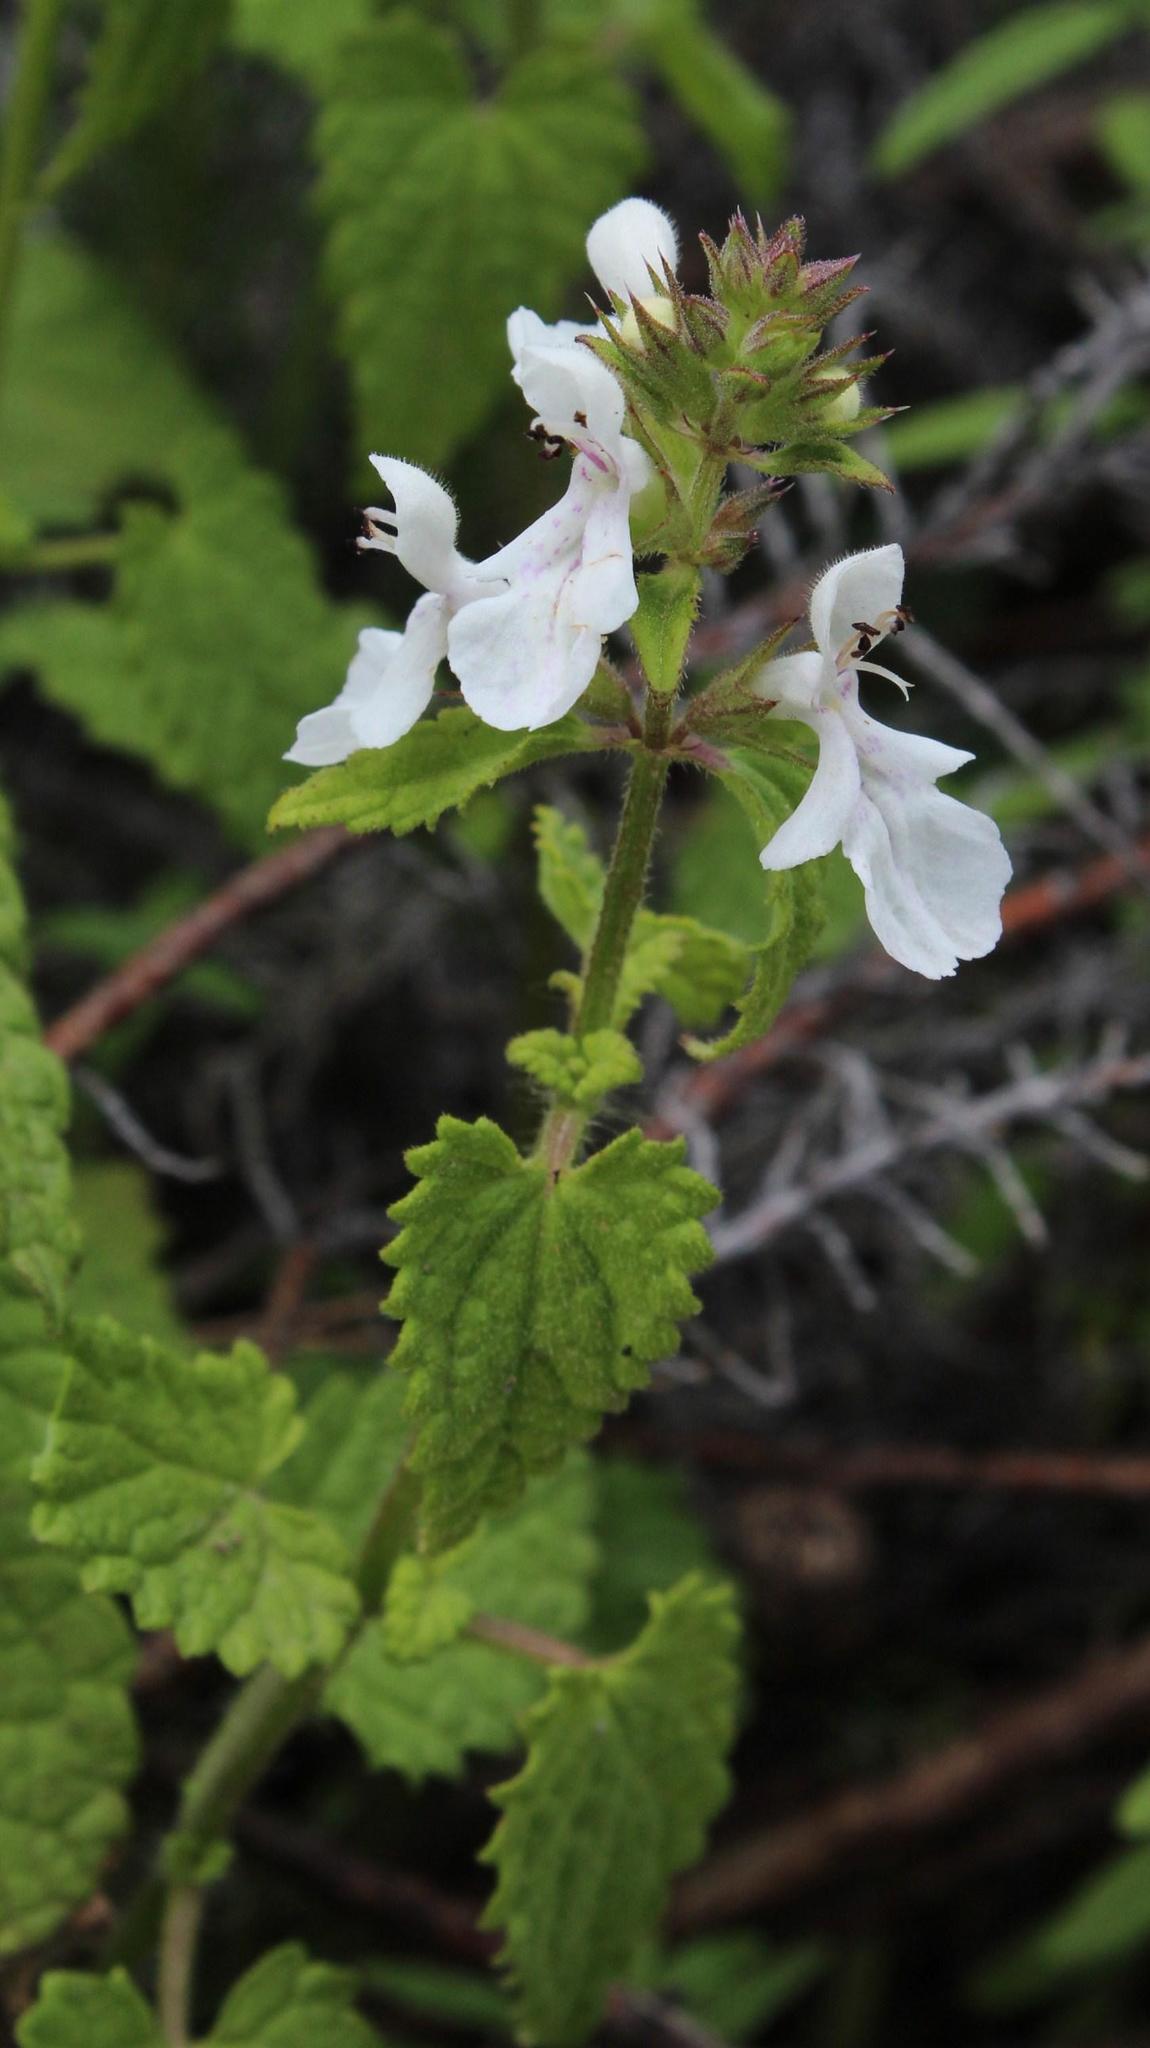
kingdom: Plantae
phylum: Tracheophyta
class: Magnoliopsida
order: Lamiales
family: Lamiaceae
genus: Stachys
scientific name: Stachys aethiopica
